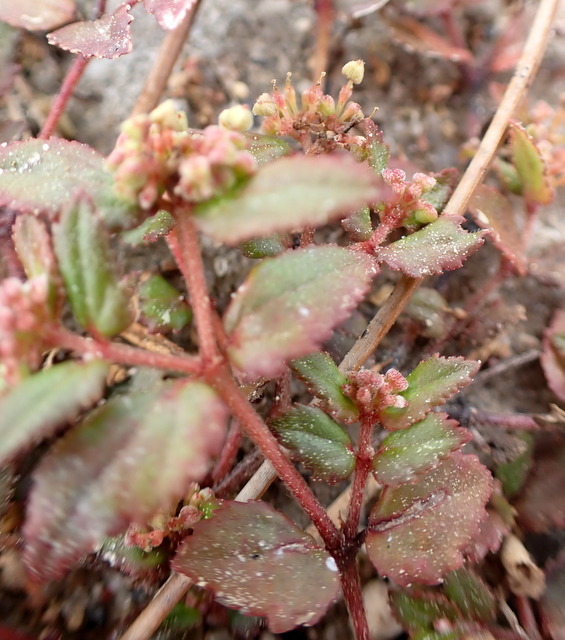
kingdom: Plantae
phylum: Tracheophyta
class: Magnoliopsida
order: Malpighiales
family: Euphorbiaceae
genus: Euphorbia
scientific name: Euphorbia ophthalmica
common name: Florida hammock sandmat
